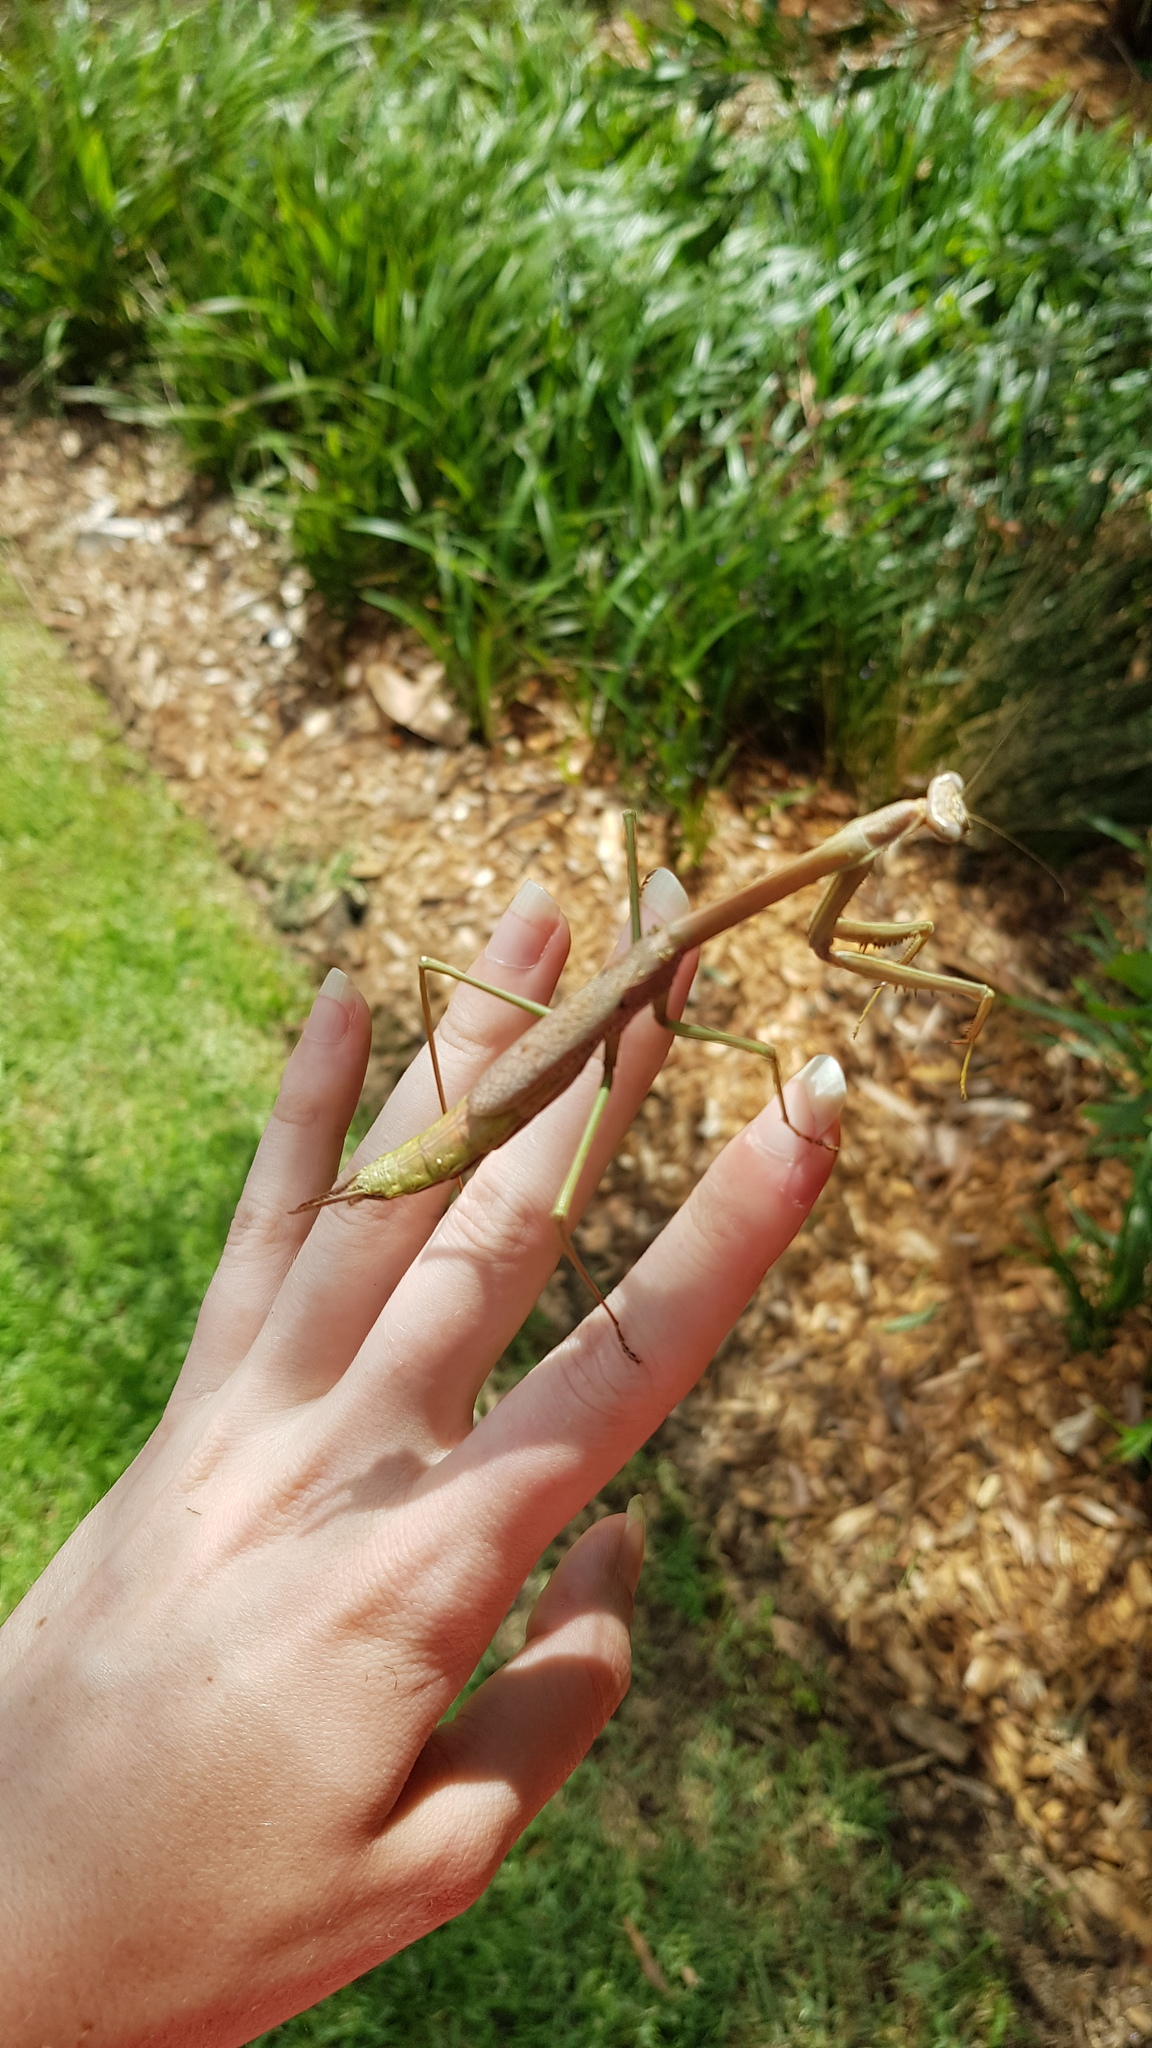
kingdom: Animalia
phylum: Arthropoda
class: Insecta
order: Mantodea
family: Mantidae
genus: Archimantis
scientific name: Archimantis latistyla
